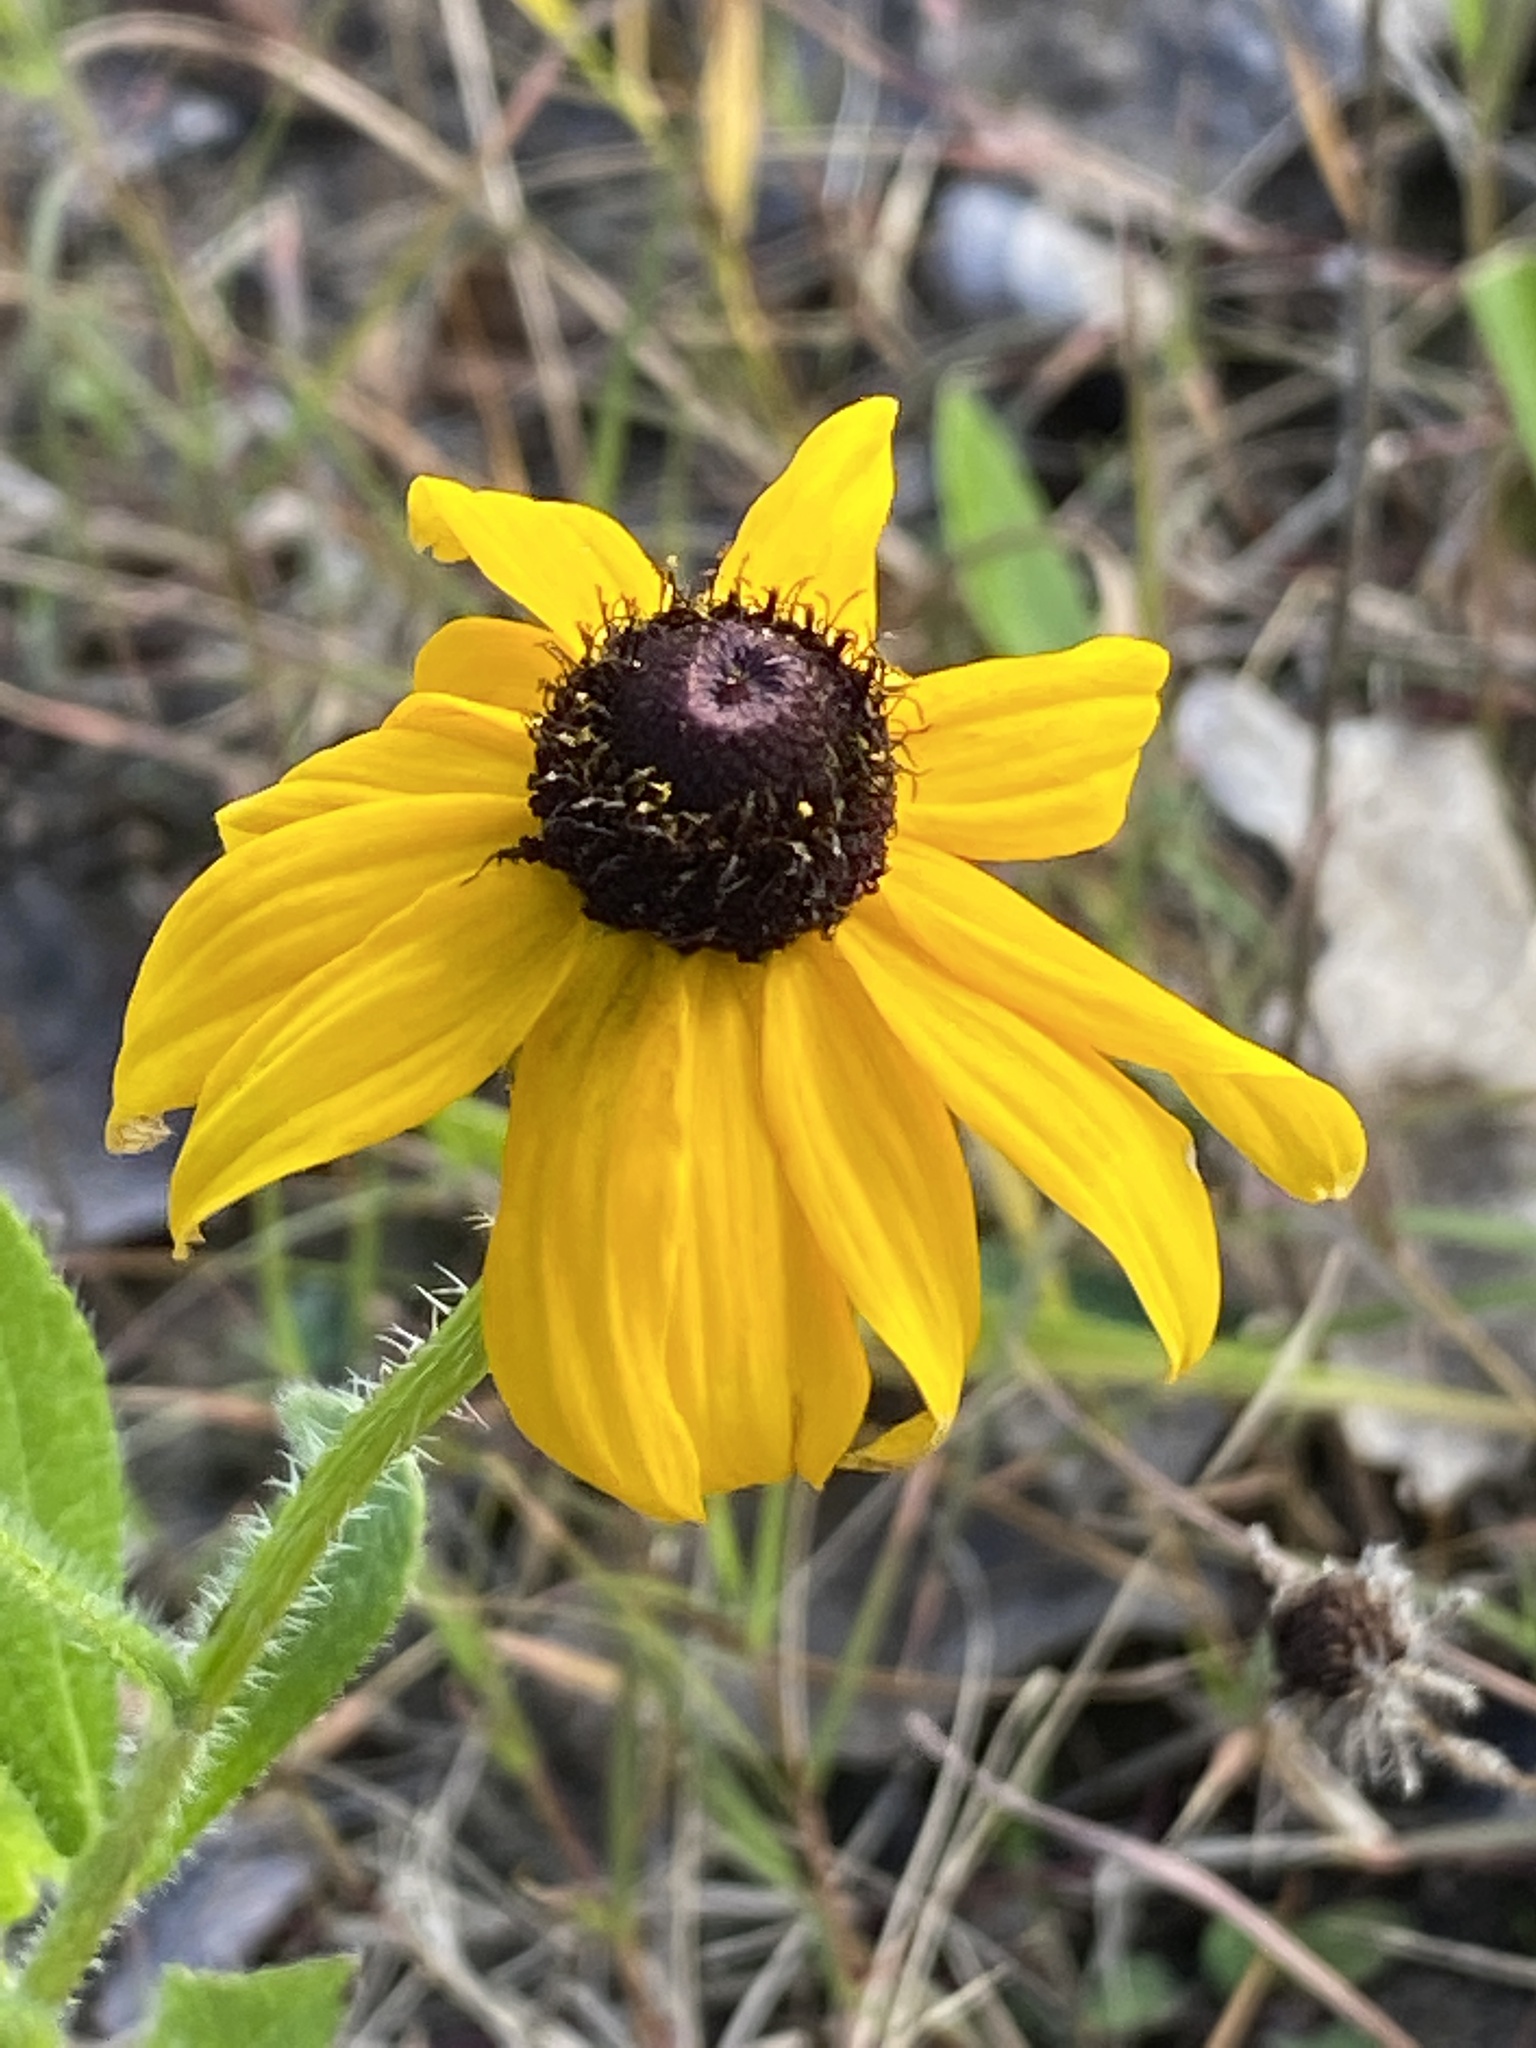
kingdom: Plantae
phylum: Tracheophyta
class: Magnoliopsida
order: Asterales
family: Asteraceae
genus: Rudbeckia
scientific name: Rudbeckia hirta
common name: Black-eyed-susan
